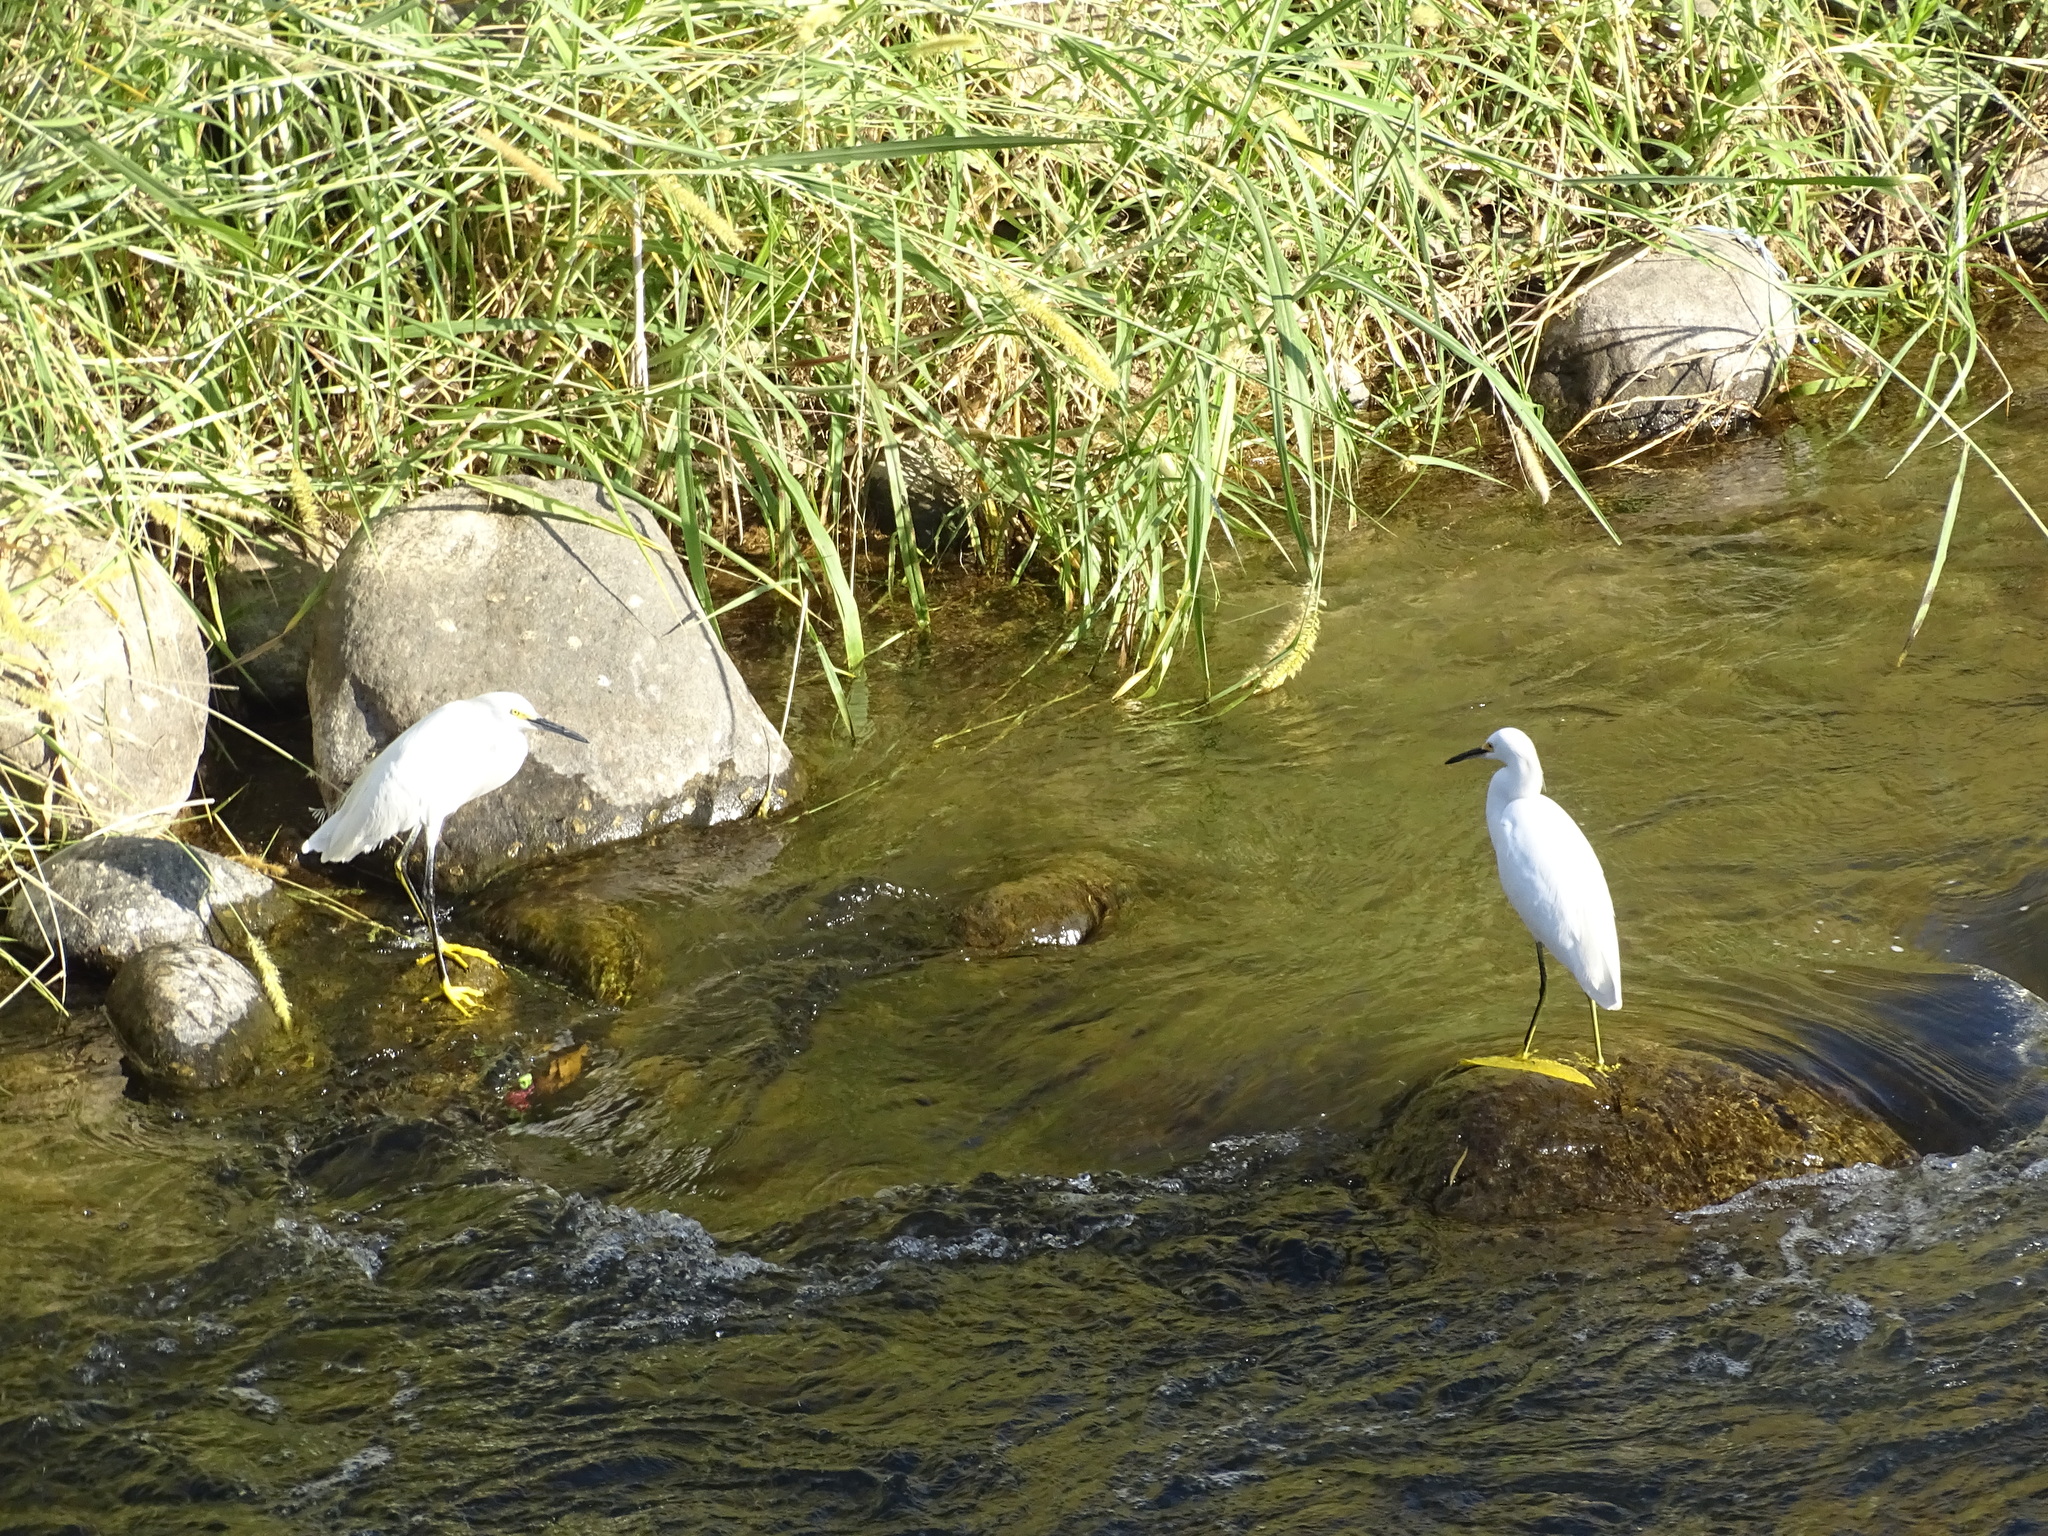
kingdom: Animalia
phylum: Chordata
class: Aves
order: Pelecaniformes
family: Ardeidae
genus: Egretta
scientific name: Egretta thula
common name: Snowy egret
